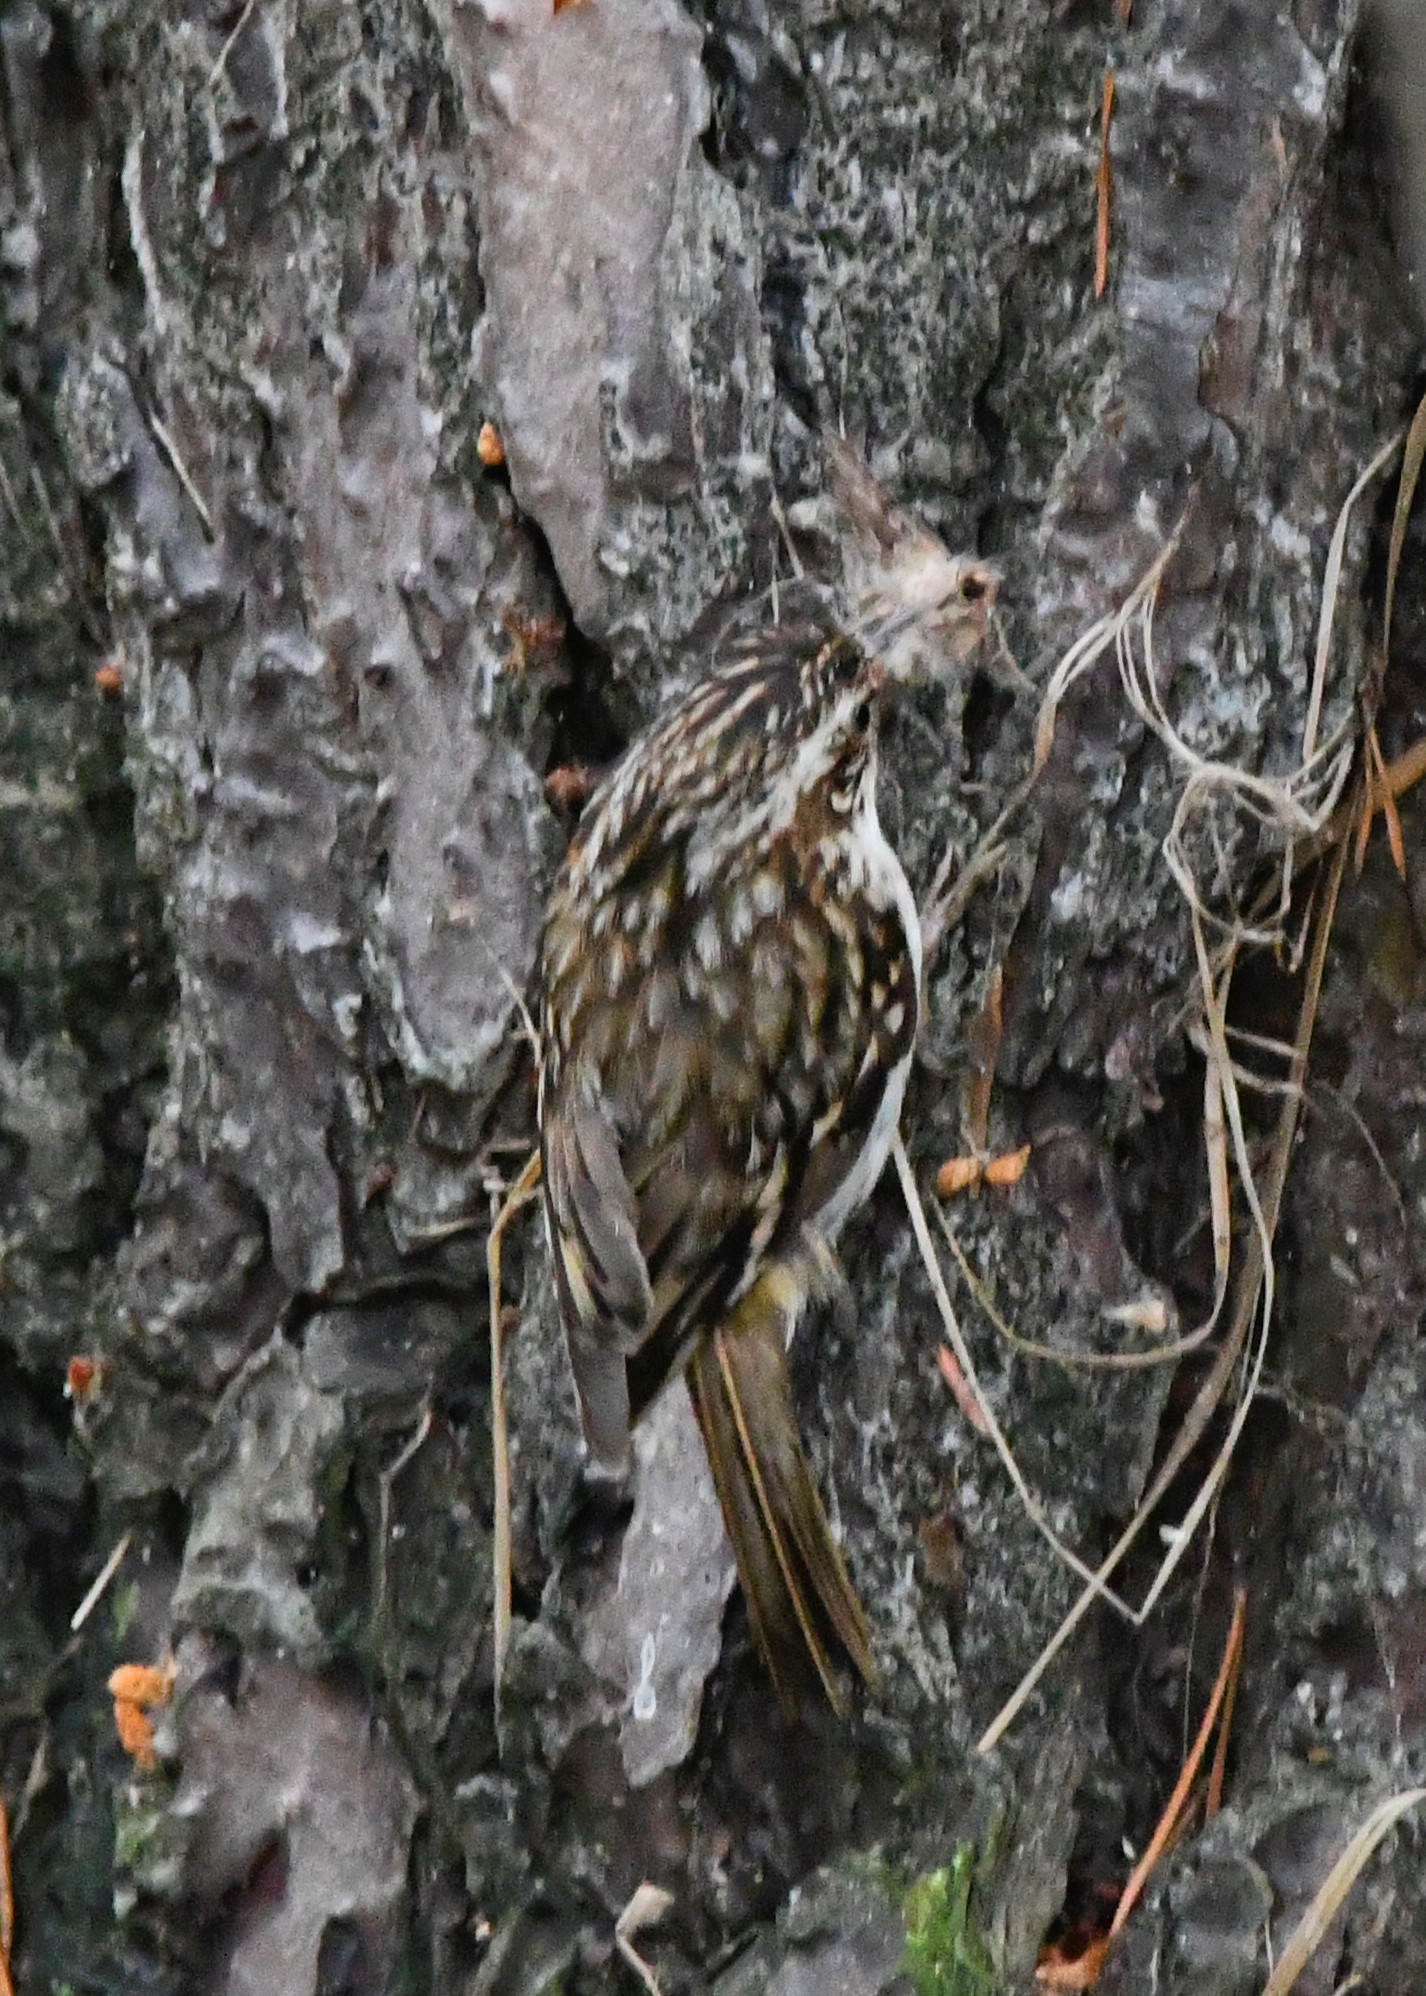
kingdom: Animalia
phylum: Chordata
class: Aves
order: Passeriformes
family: Certhiidae
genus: Certhia
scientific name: Certhia familiaris
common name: Eurasian treecreeper
